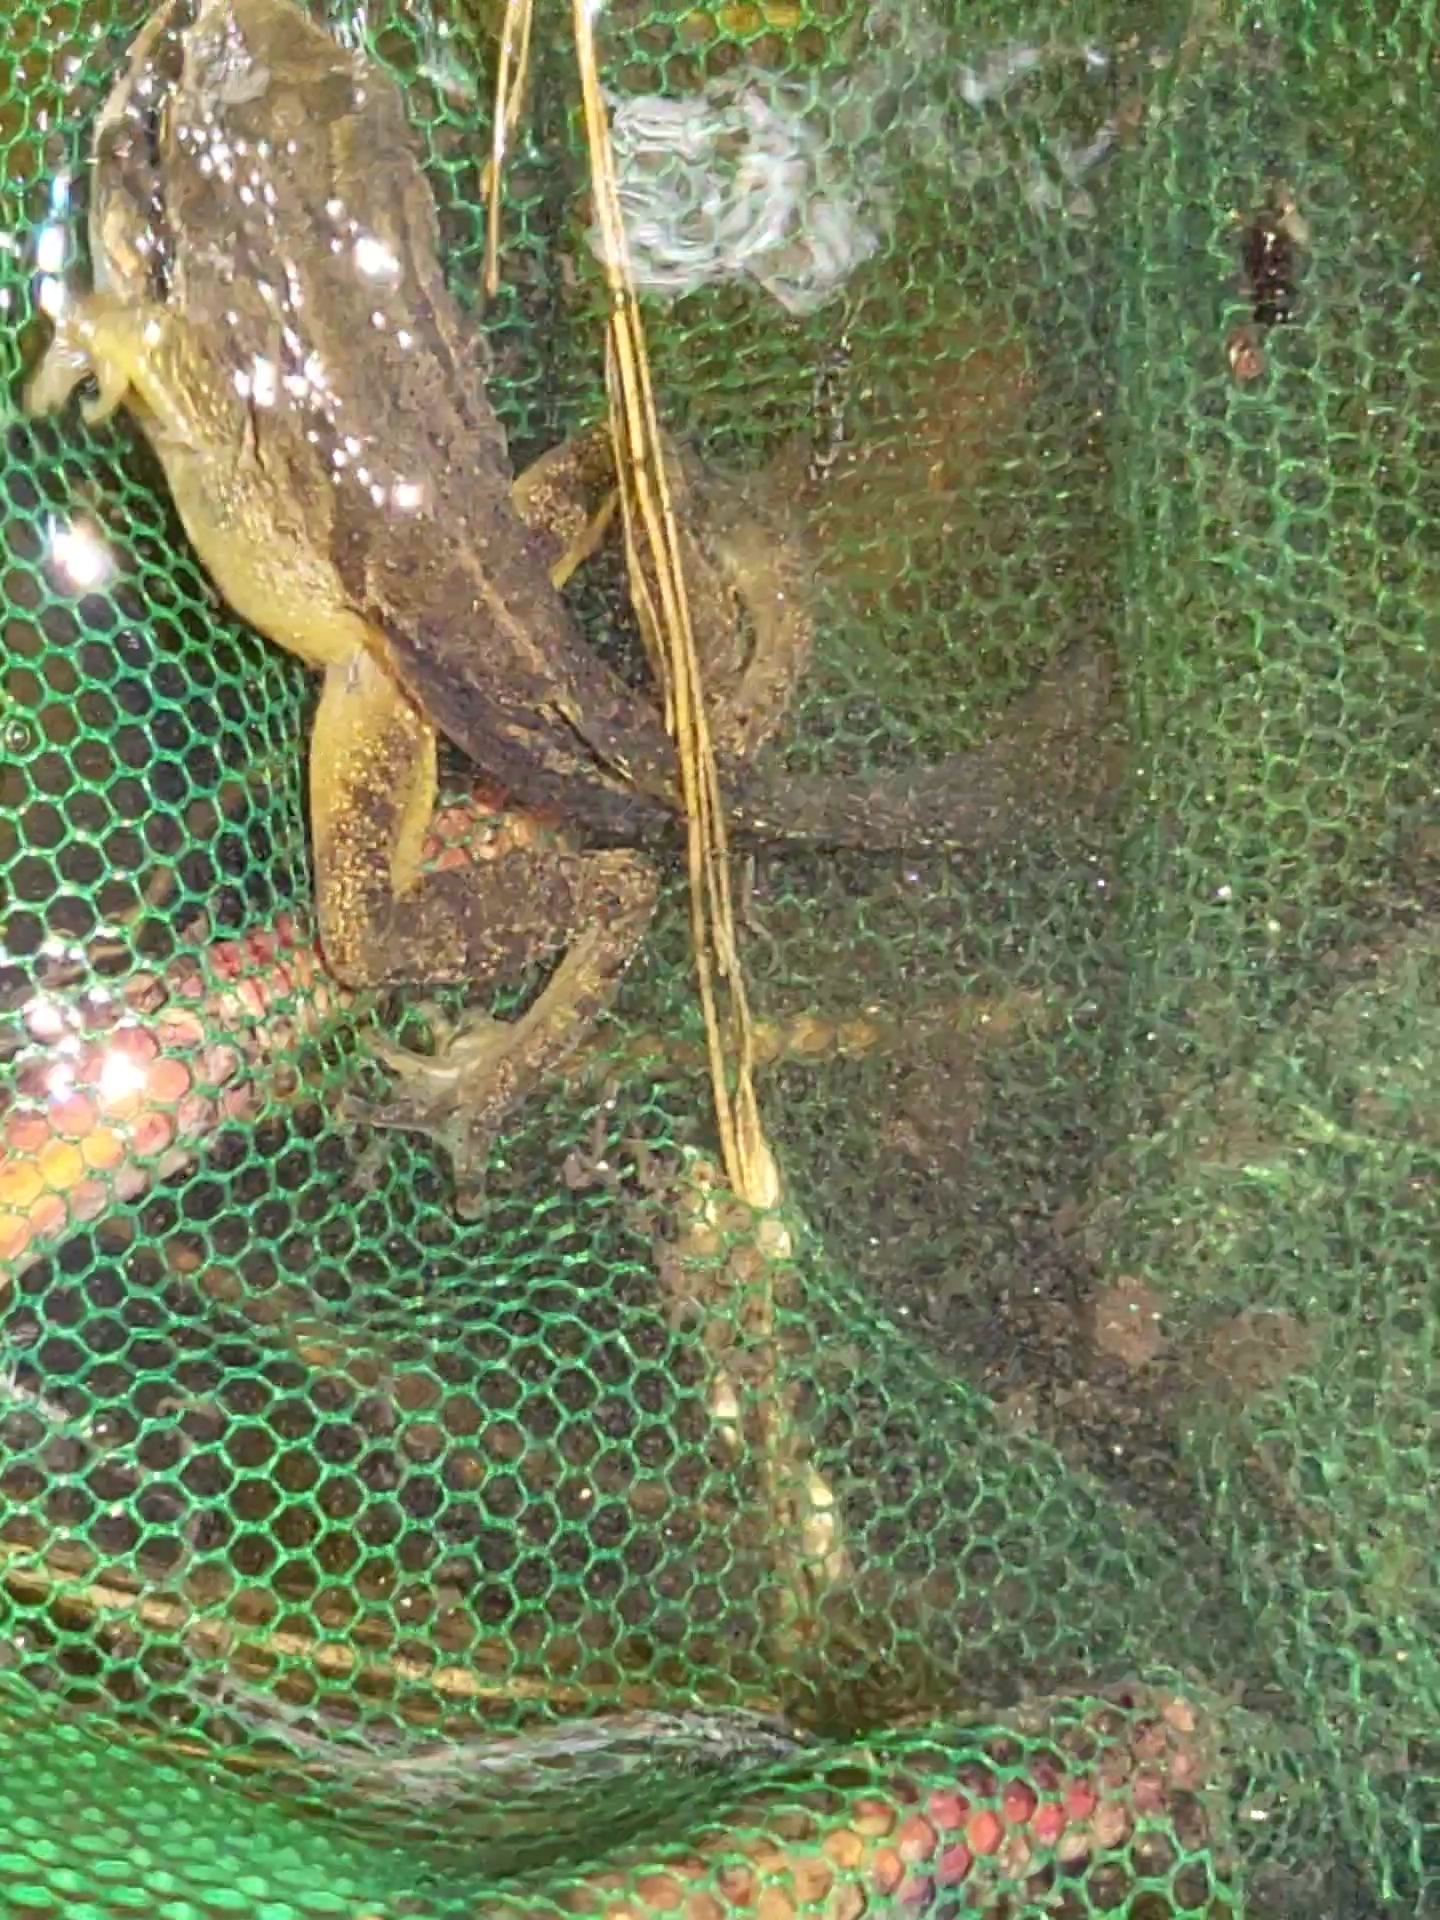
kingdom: Animalia
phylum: Chordata
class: Amphibia
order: Anura
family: Hylidae
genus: Pseudacris
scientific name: Pseudacris regilla
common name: Pacific chorus frog
